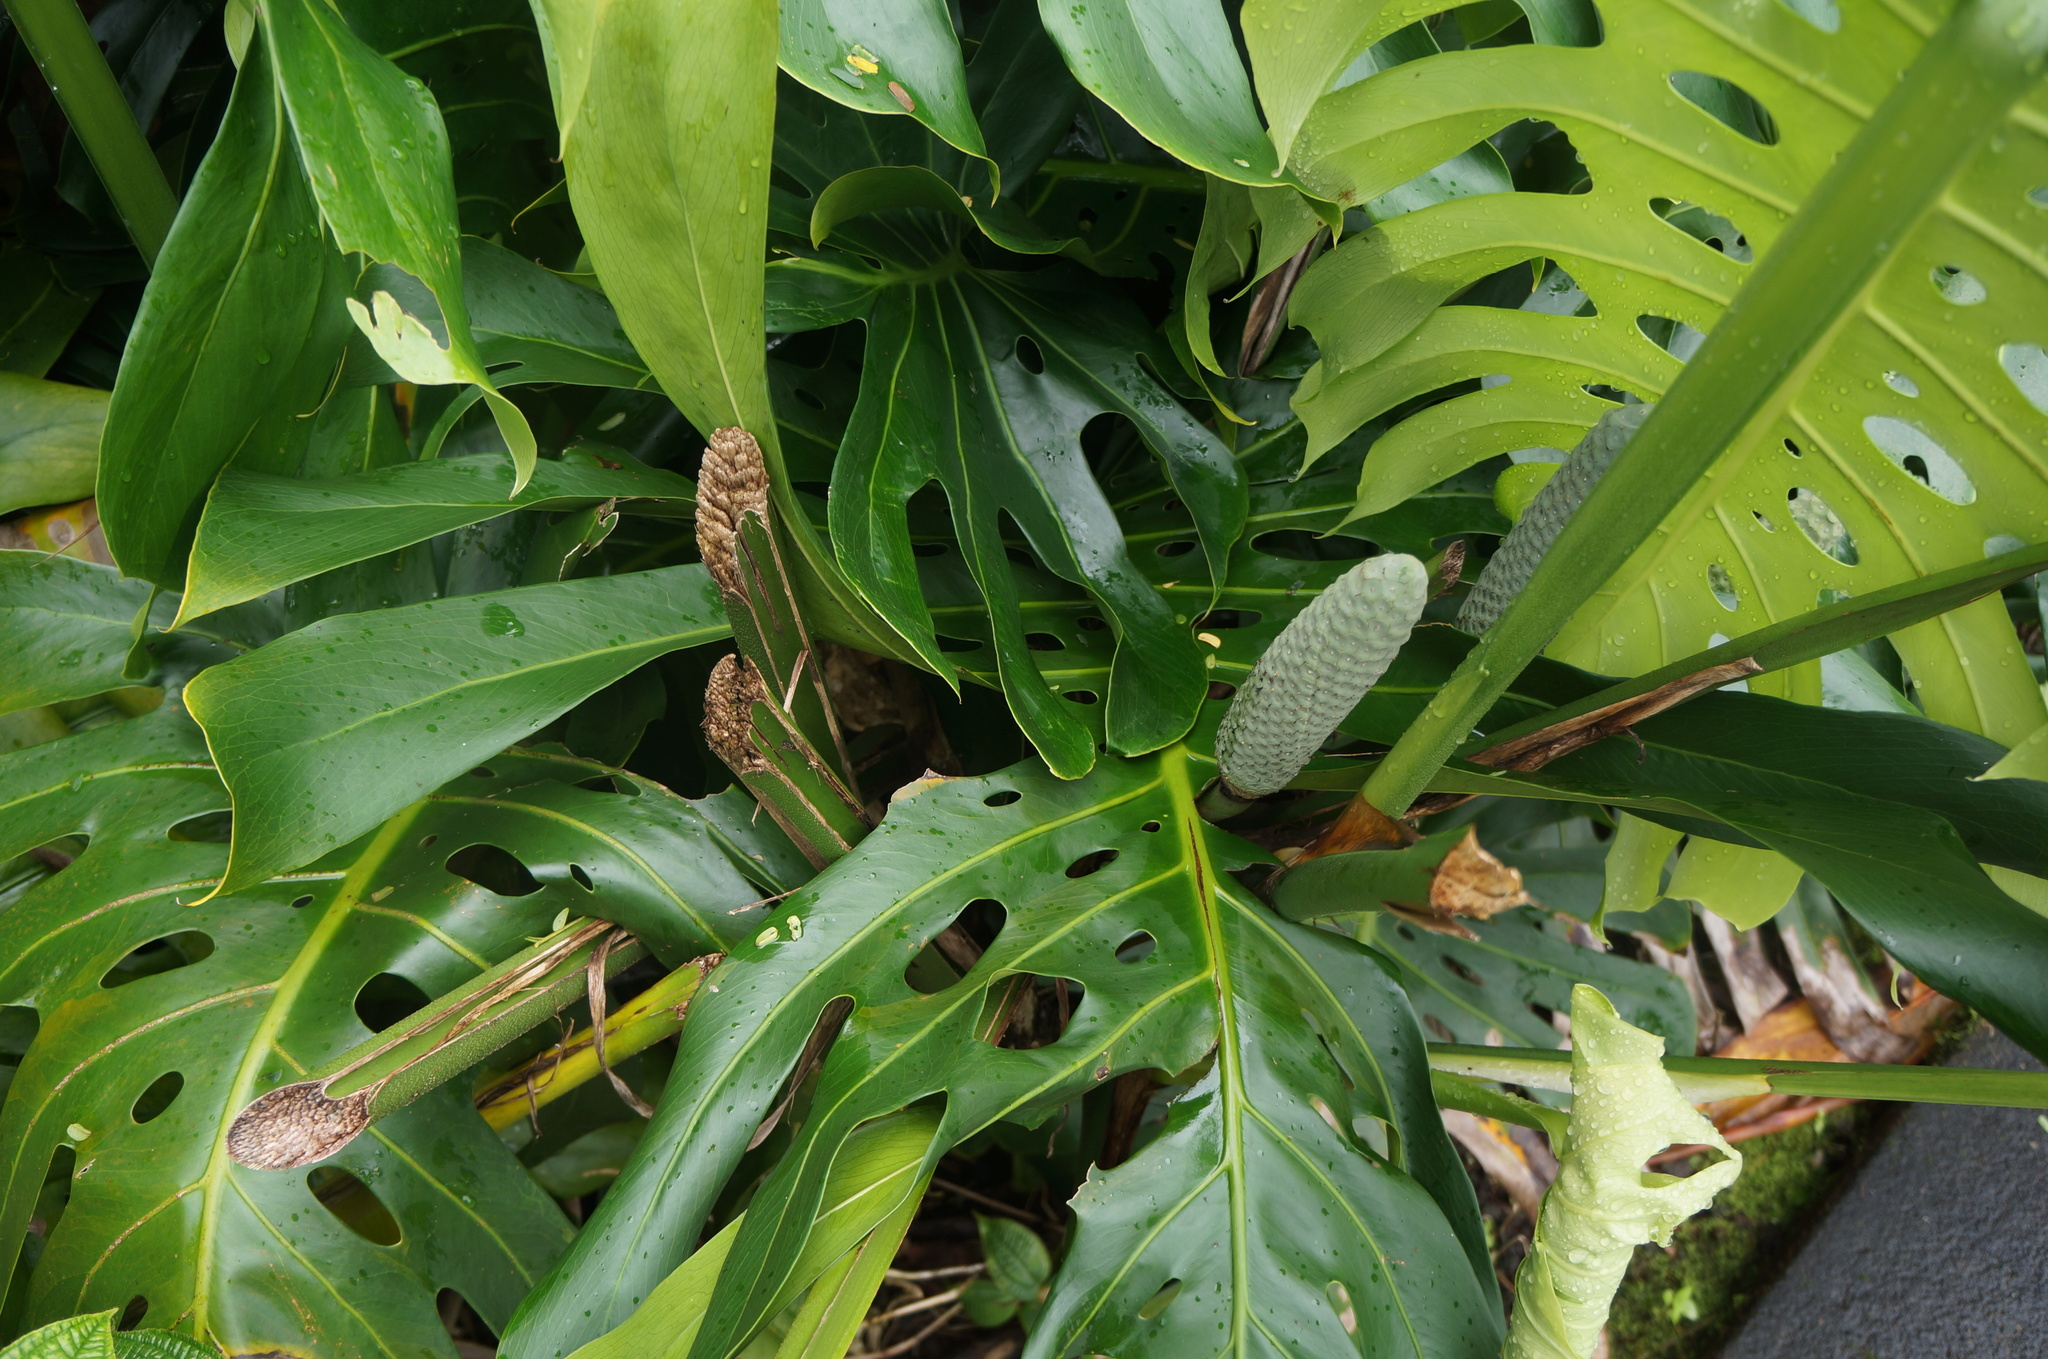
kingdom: Plantae
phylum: Tracheophyta
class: Liliopsida
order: Alismatales
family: Araceae
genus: Monstera
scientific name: Monstera deliciosa
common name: Cut-leaf-philodendron
